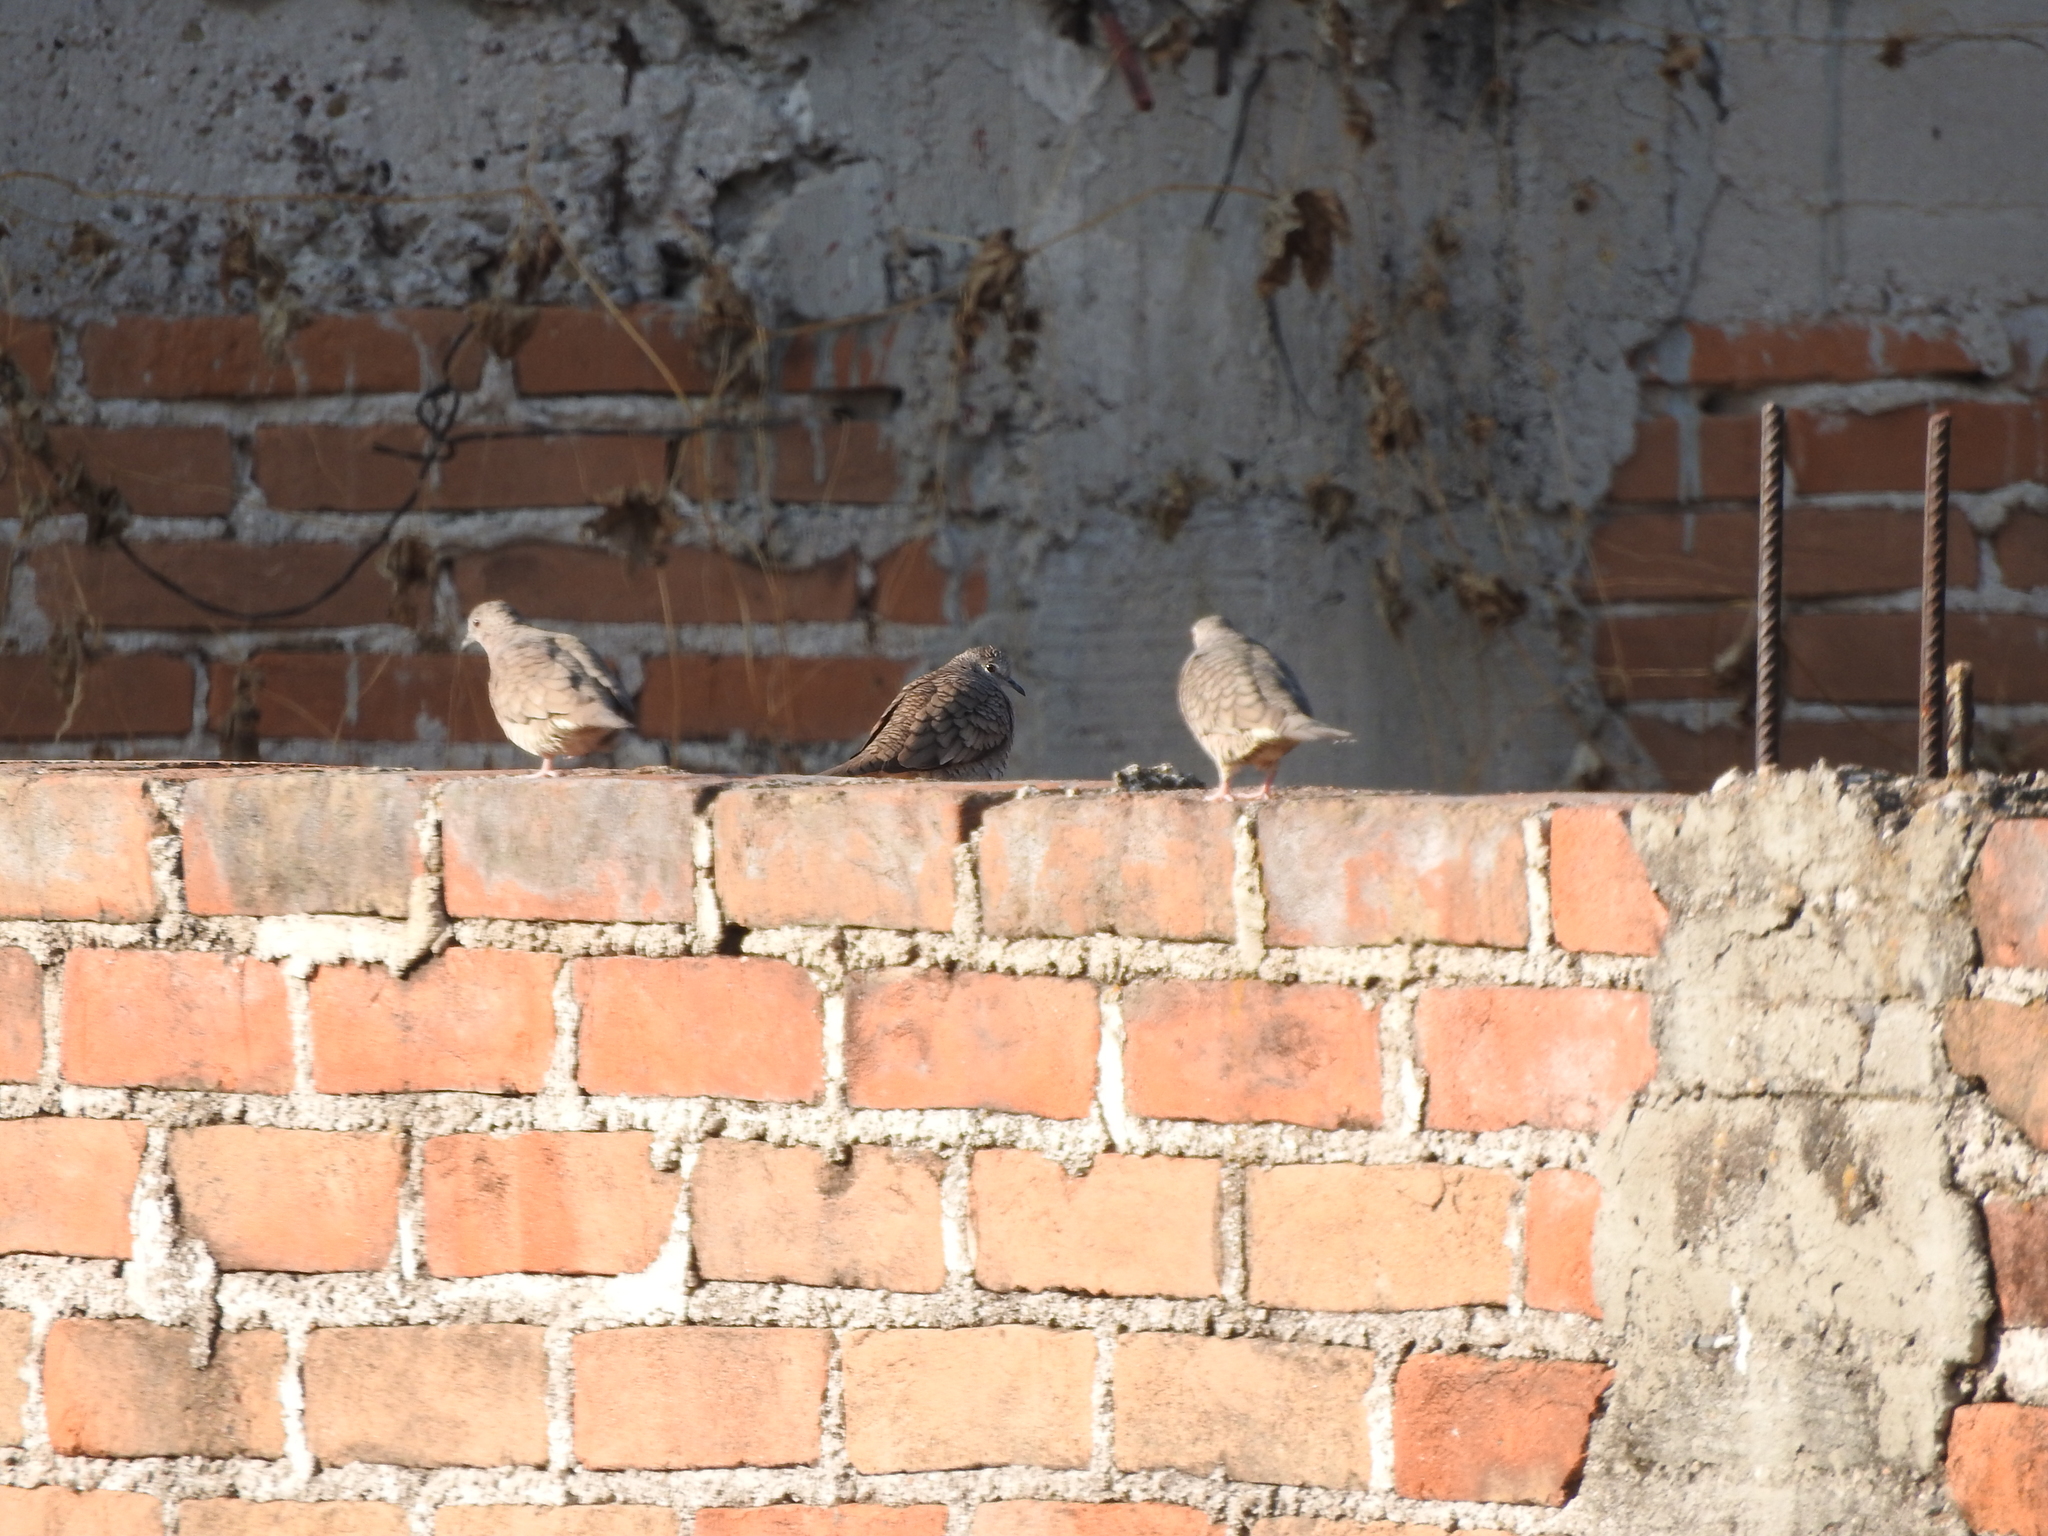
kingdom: Animalia
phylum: Chordata
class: Aves
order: Columbiformes
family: Columbidae
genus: Columbina
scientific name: Columbina inca
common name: Inca dove
